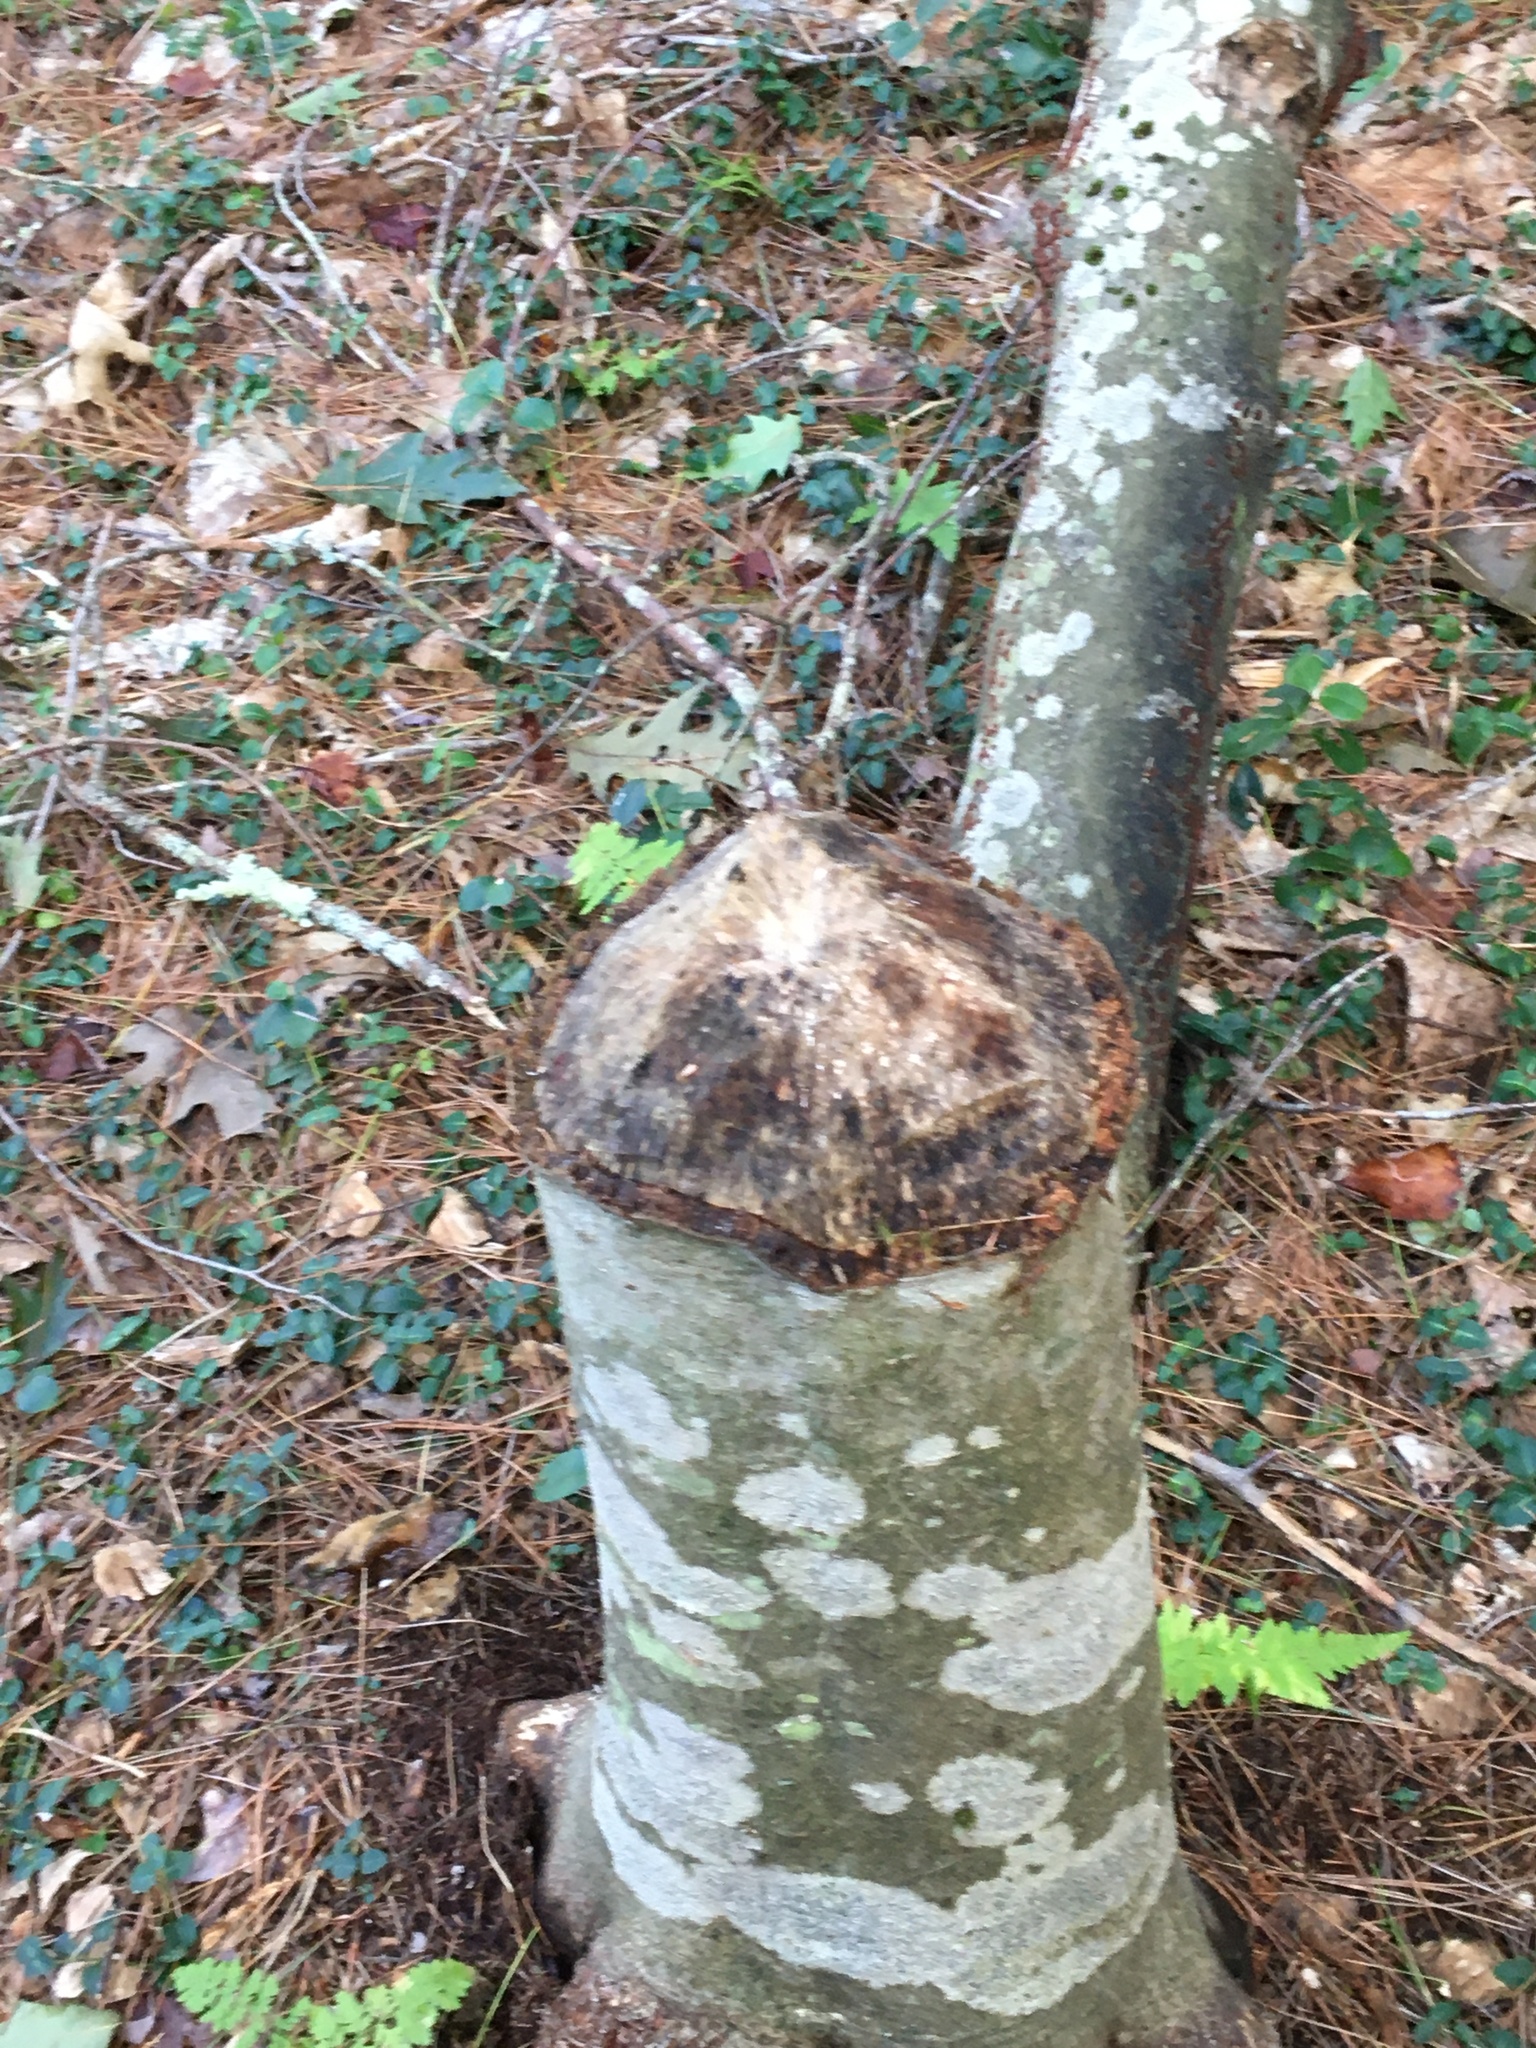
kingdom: Animalia
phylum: Chordata
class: Mammalia
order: Rodentia
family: Castoridae
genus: Castor
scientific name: Castor canadensis
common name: American beaver
